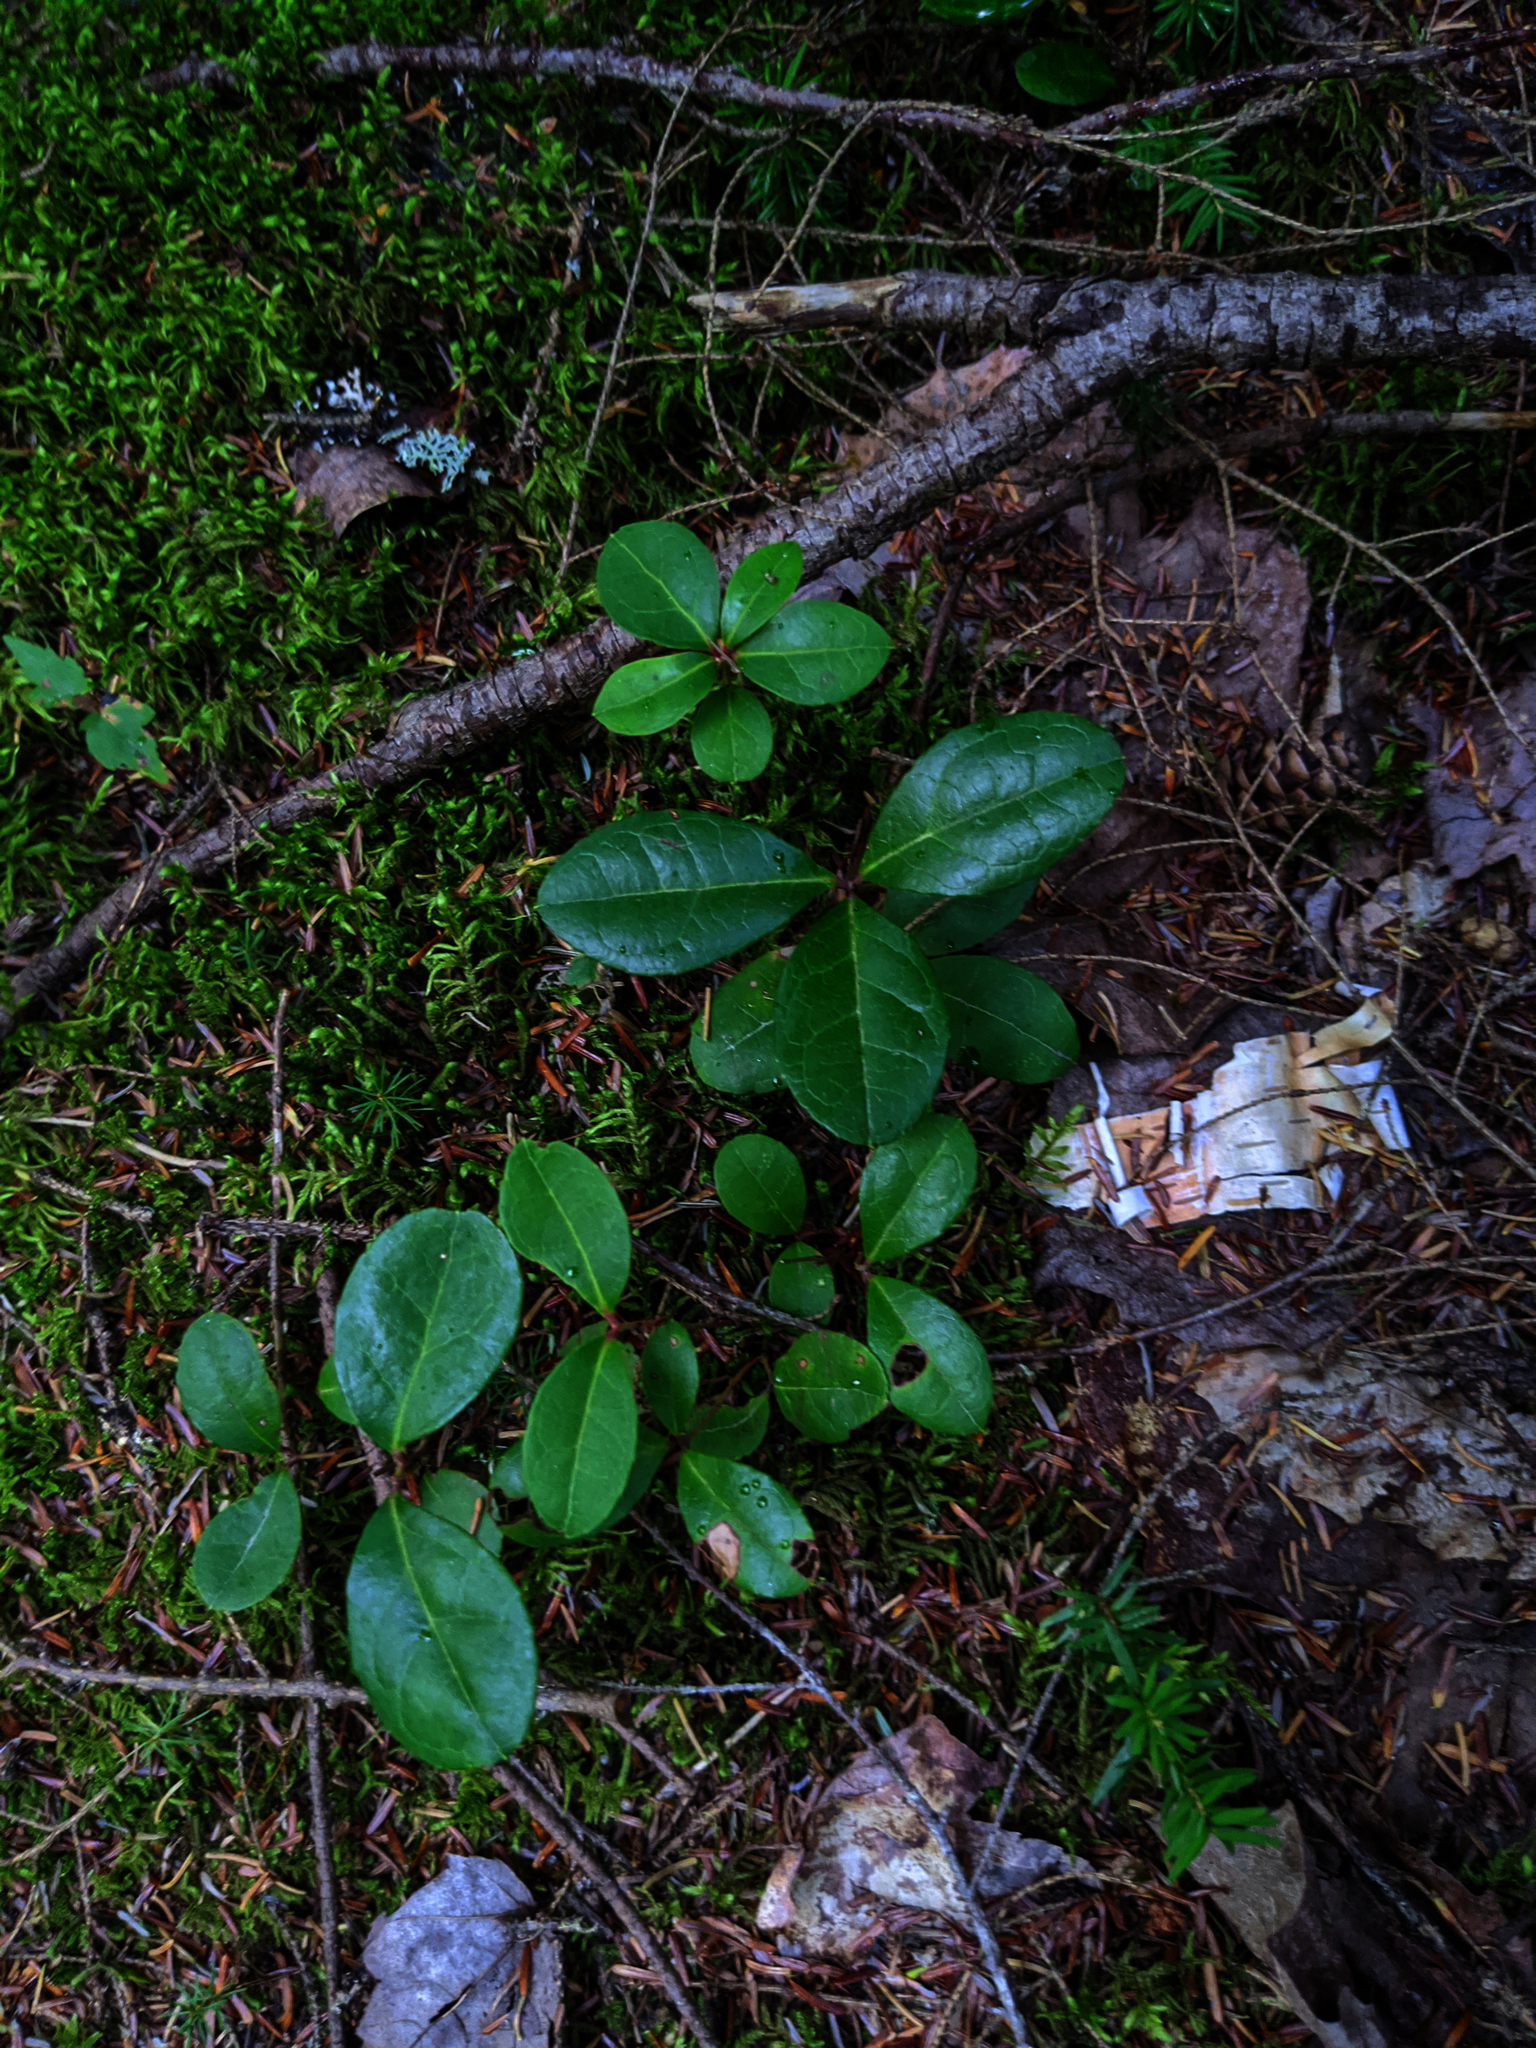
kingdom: Plantae
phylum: Tracheophyta
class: Magnoliopsida
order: Ericales
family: Ericaceae
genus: Gaultheria
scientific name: Gaultheria procumbens
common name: Checkerberry
